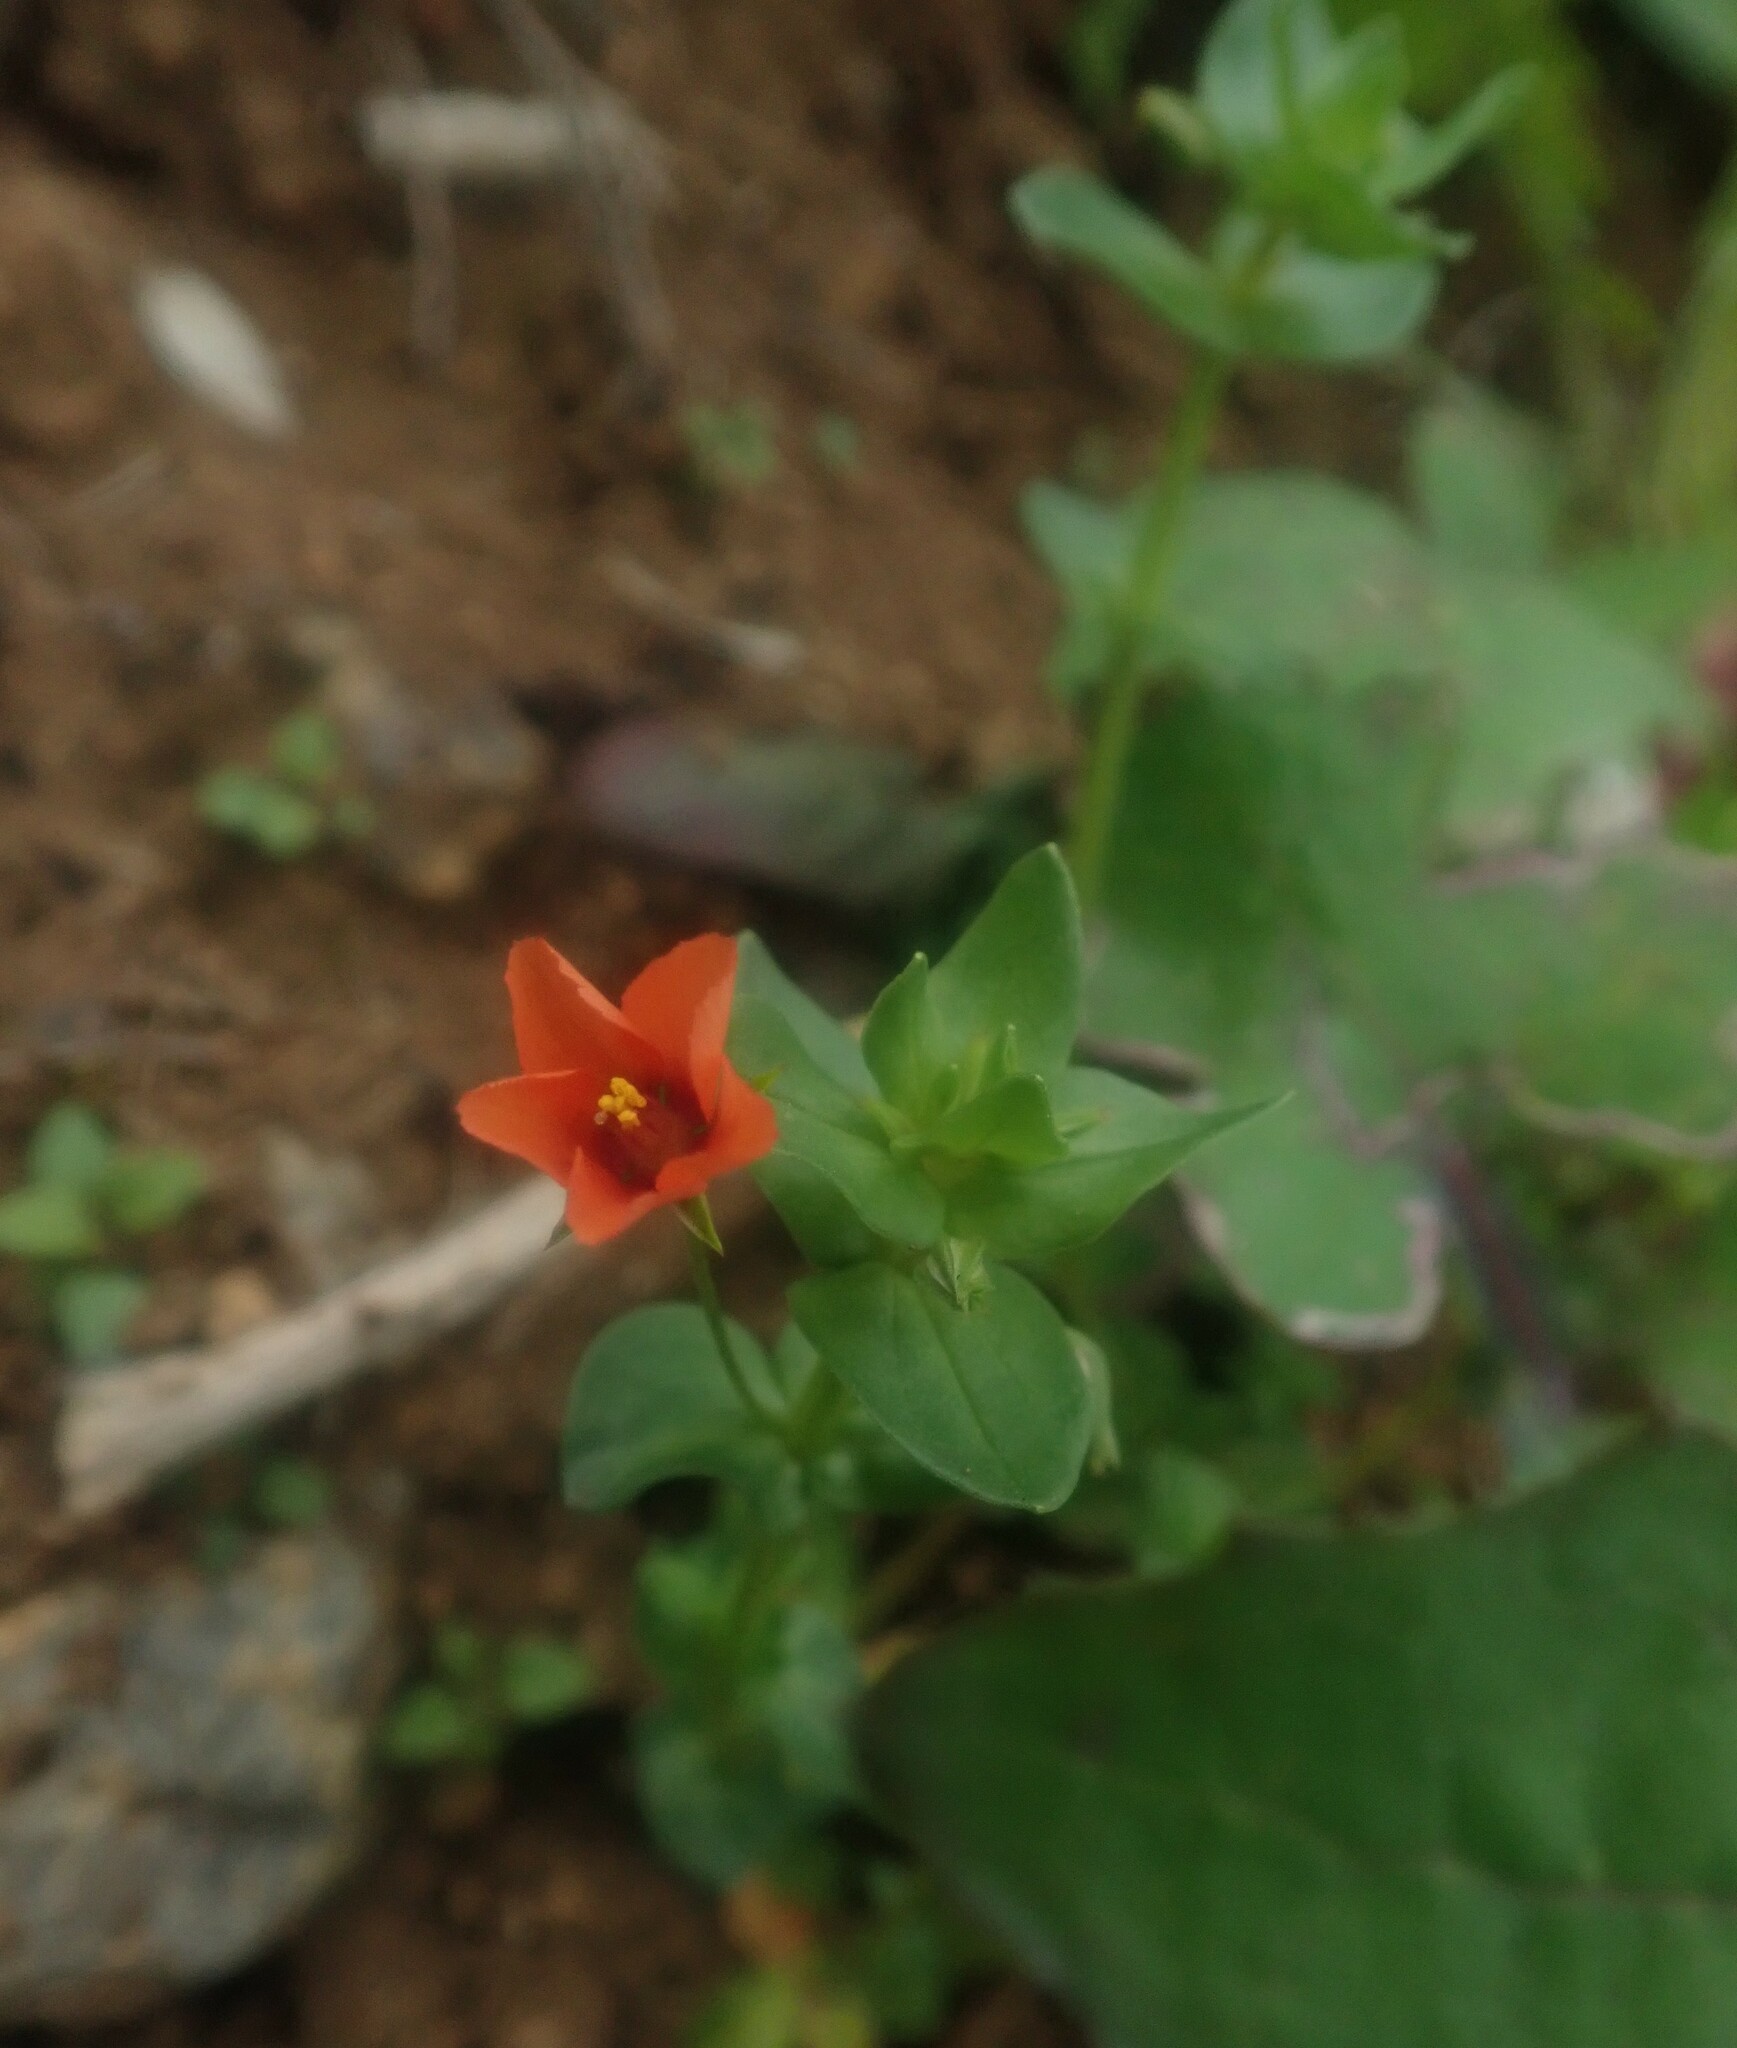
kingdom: Plantae
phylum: Tracheophyta
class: Magnoliopsida
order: Ericales
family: Primulaceae
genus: Lysimachia
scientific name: Lysimachia arvensis
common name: Scarlet pimpernel
